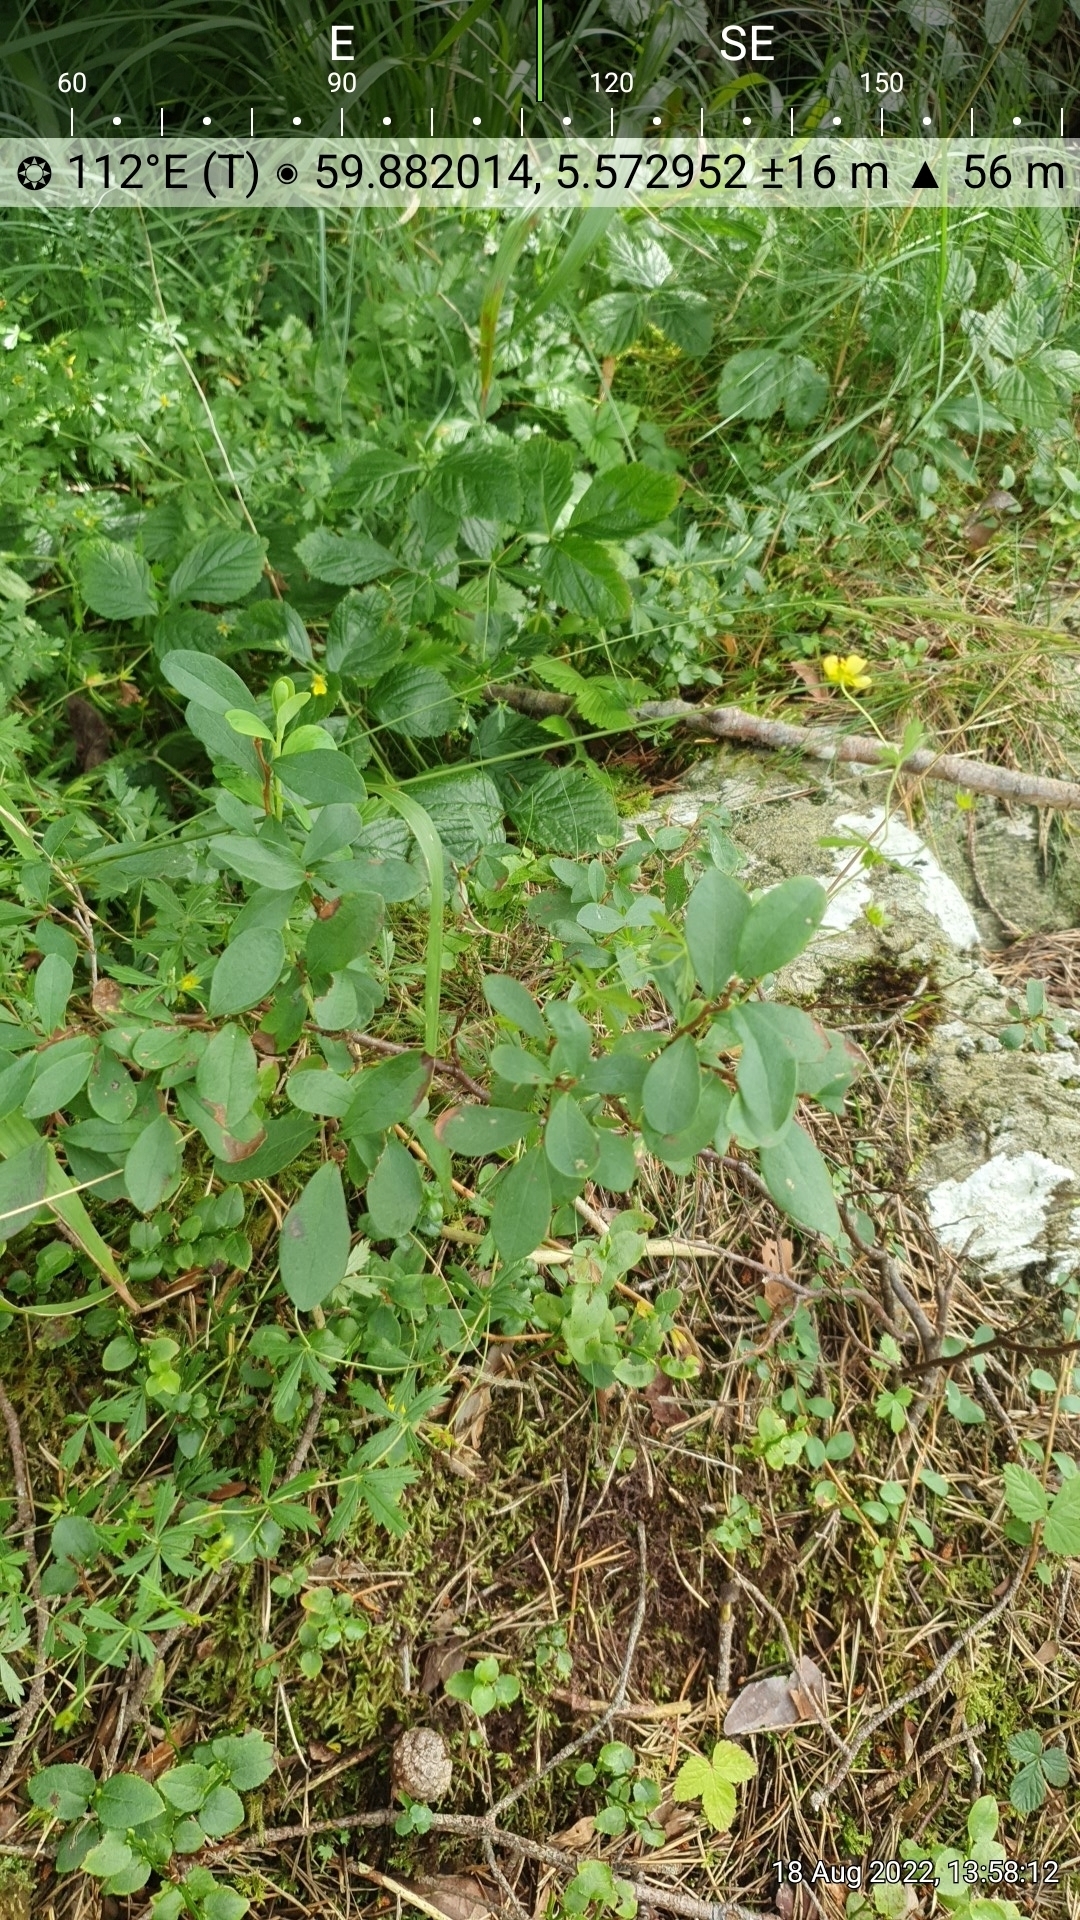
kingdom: Plantae
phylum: Tracheophyta
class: Magnoliopsida
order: Ericales
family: Ericaceae
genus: Vaccinium
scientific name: Vaccinium uliginosum
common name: Bog bilberry
